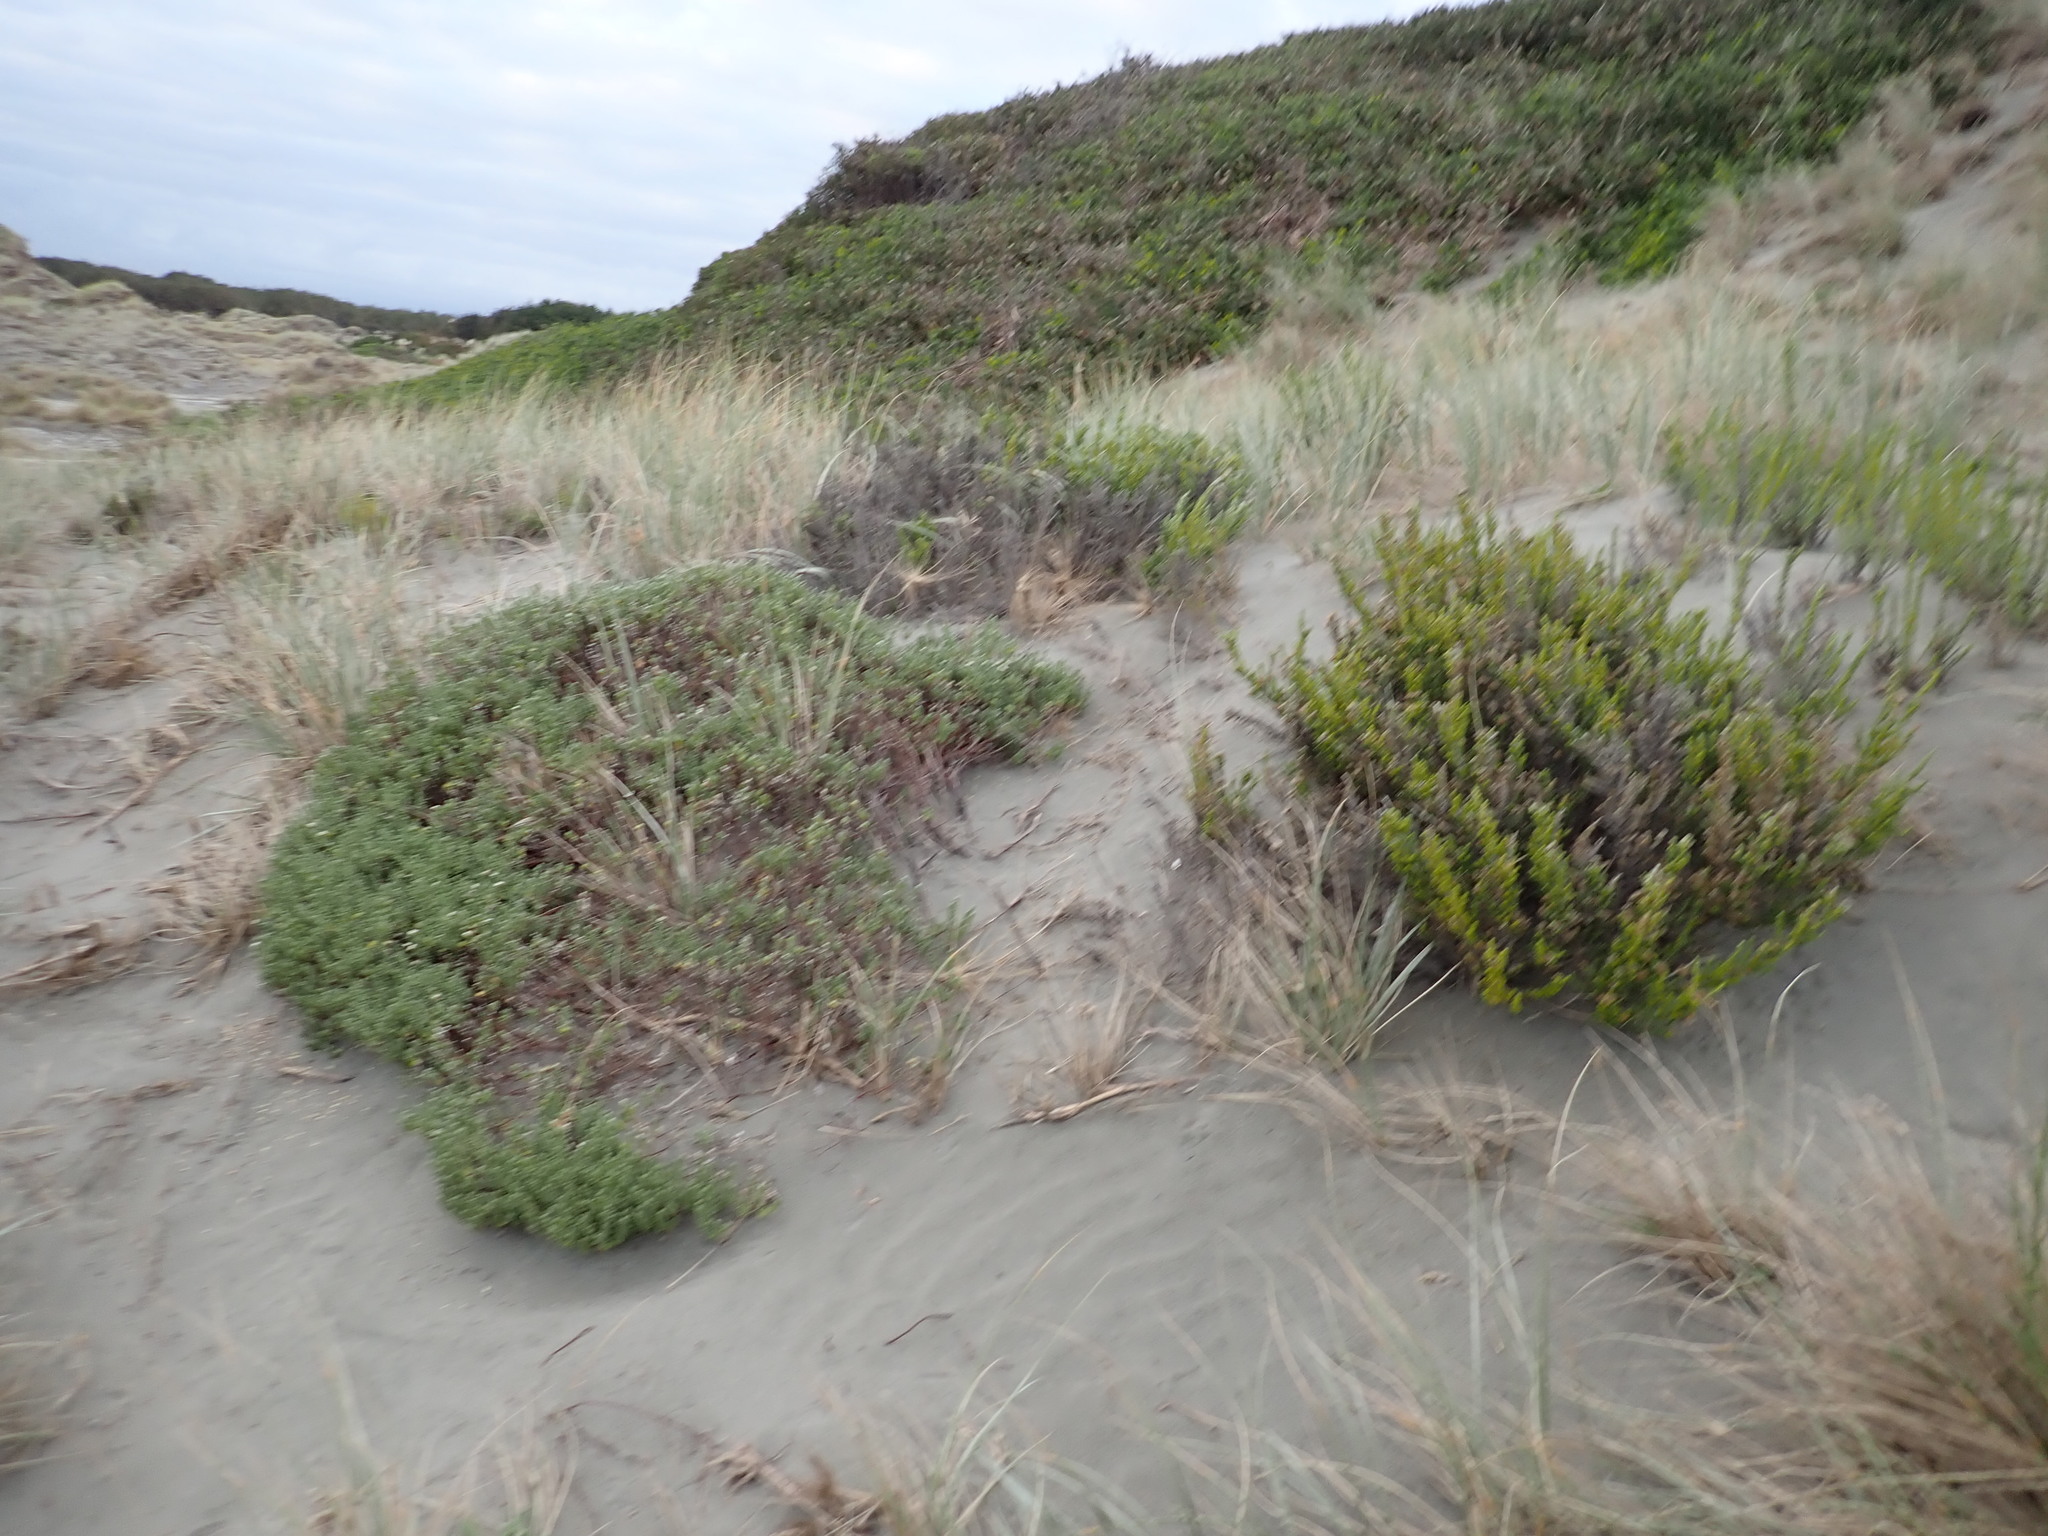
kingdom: Plantae
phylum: Tracheophyta
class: Magnoliopsida
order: Asterales
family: Asteraceae
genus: Ozothamnus
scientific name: Ozothamnus leptophyllus
